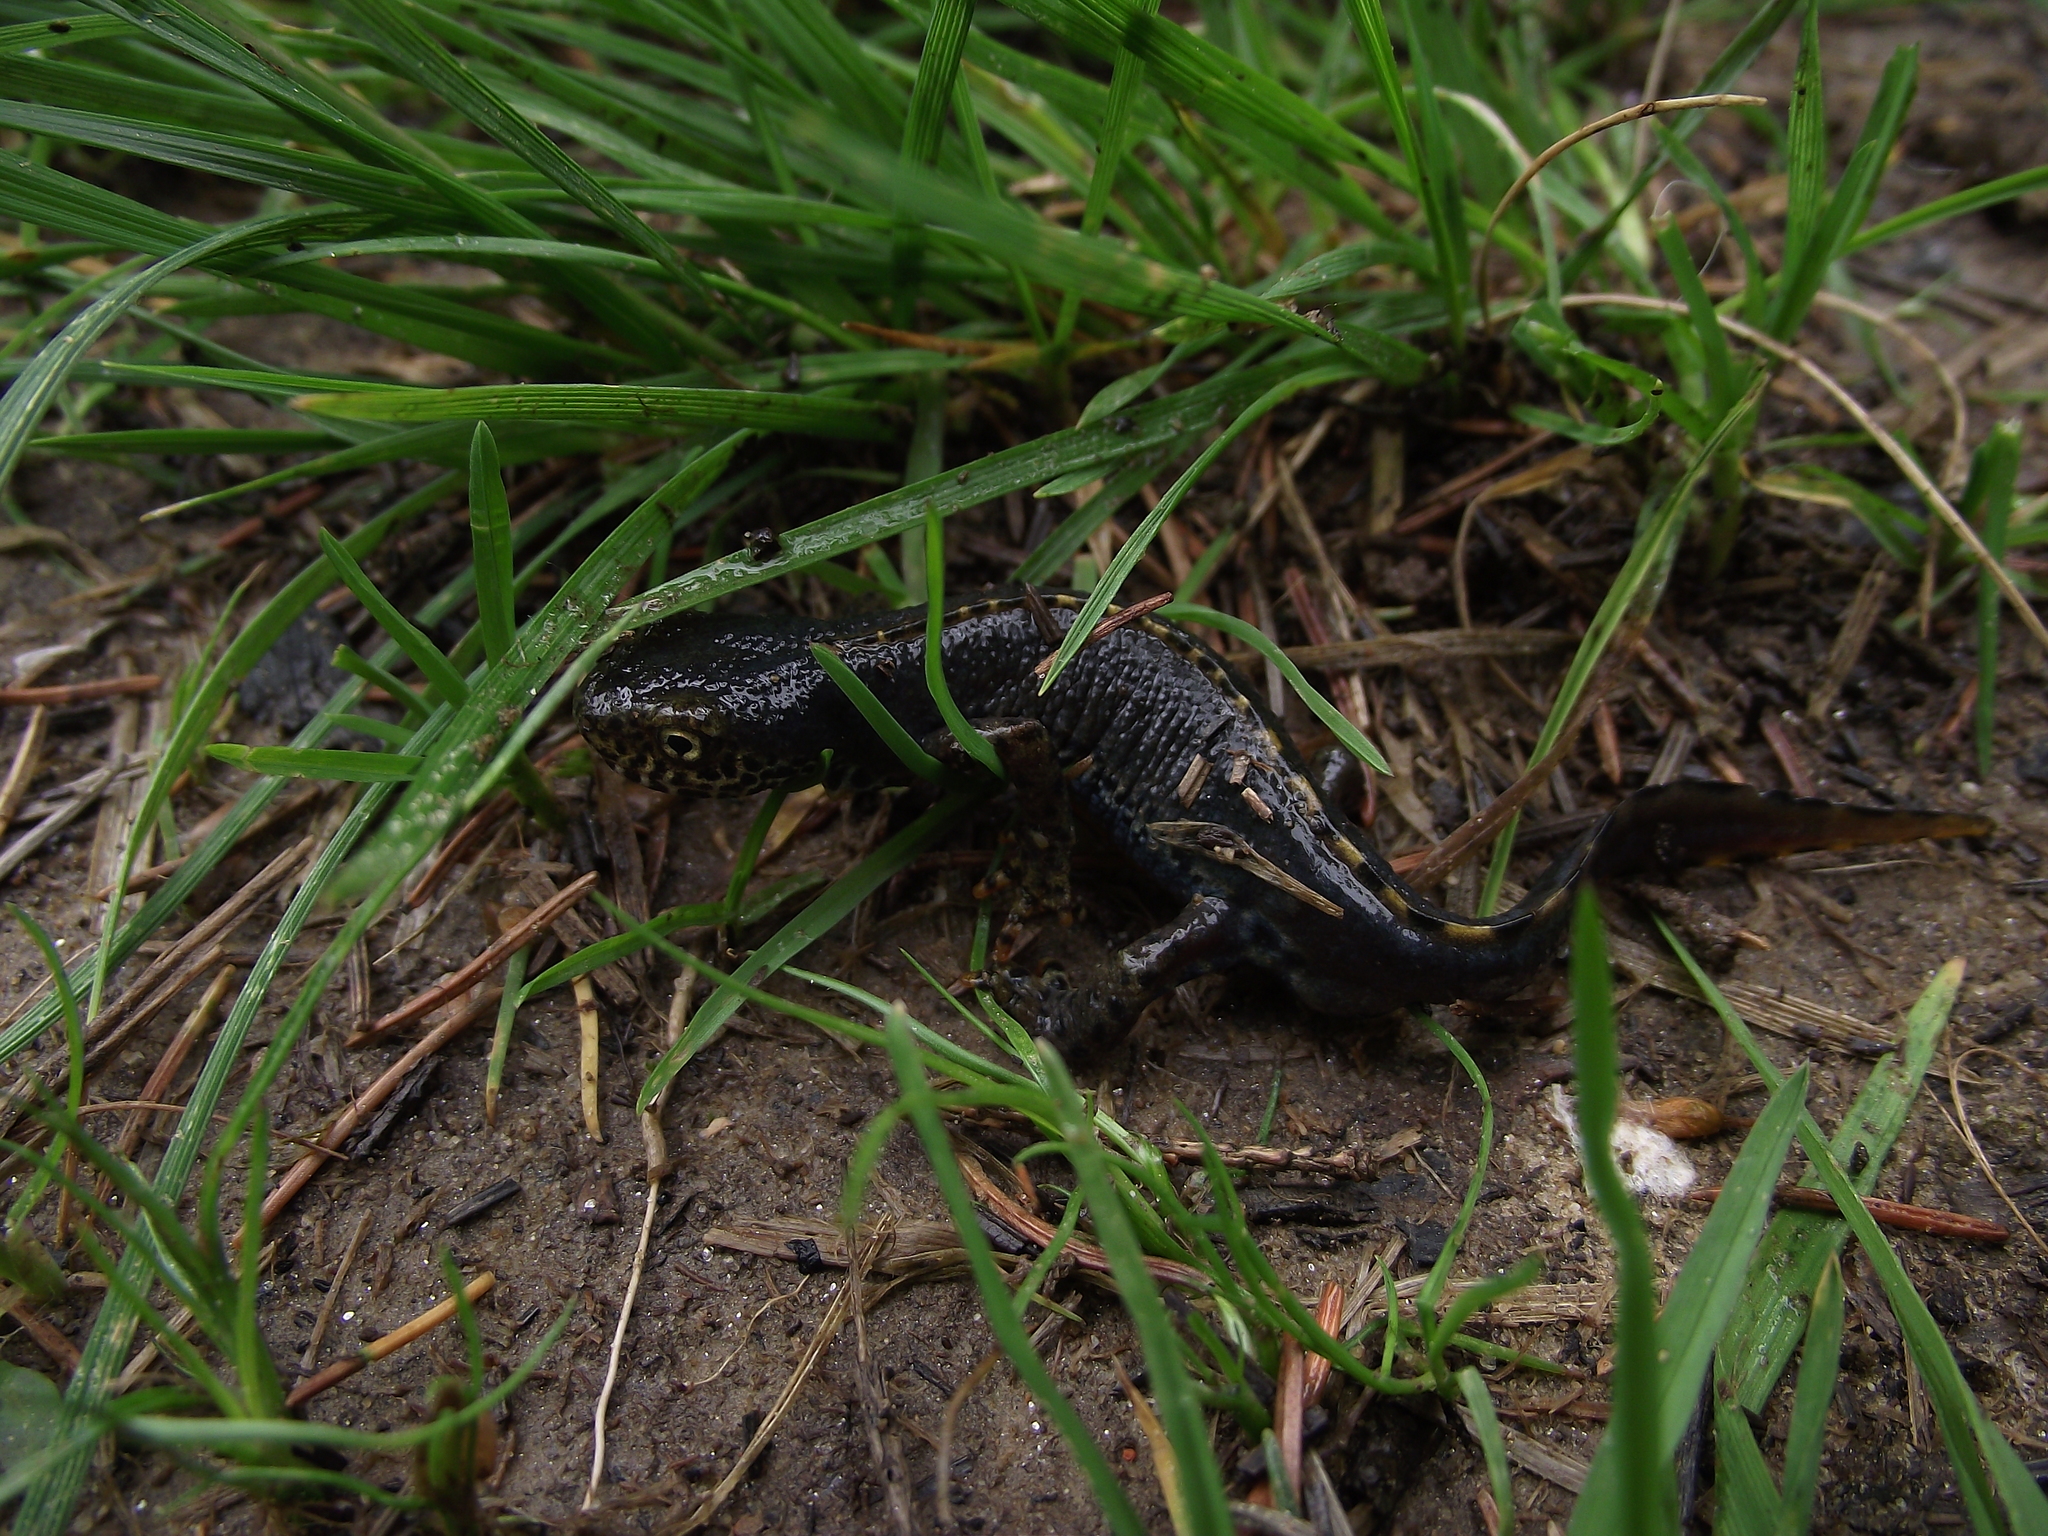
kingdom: Animalia
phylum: Chordata
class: Amphibia
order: Caudata
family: Salamandridae
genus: Ichthyosaura
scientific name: Ichthyosaura alpestris
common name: Alpine newt
